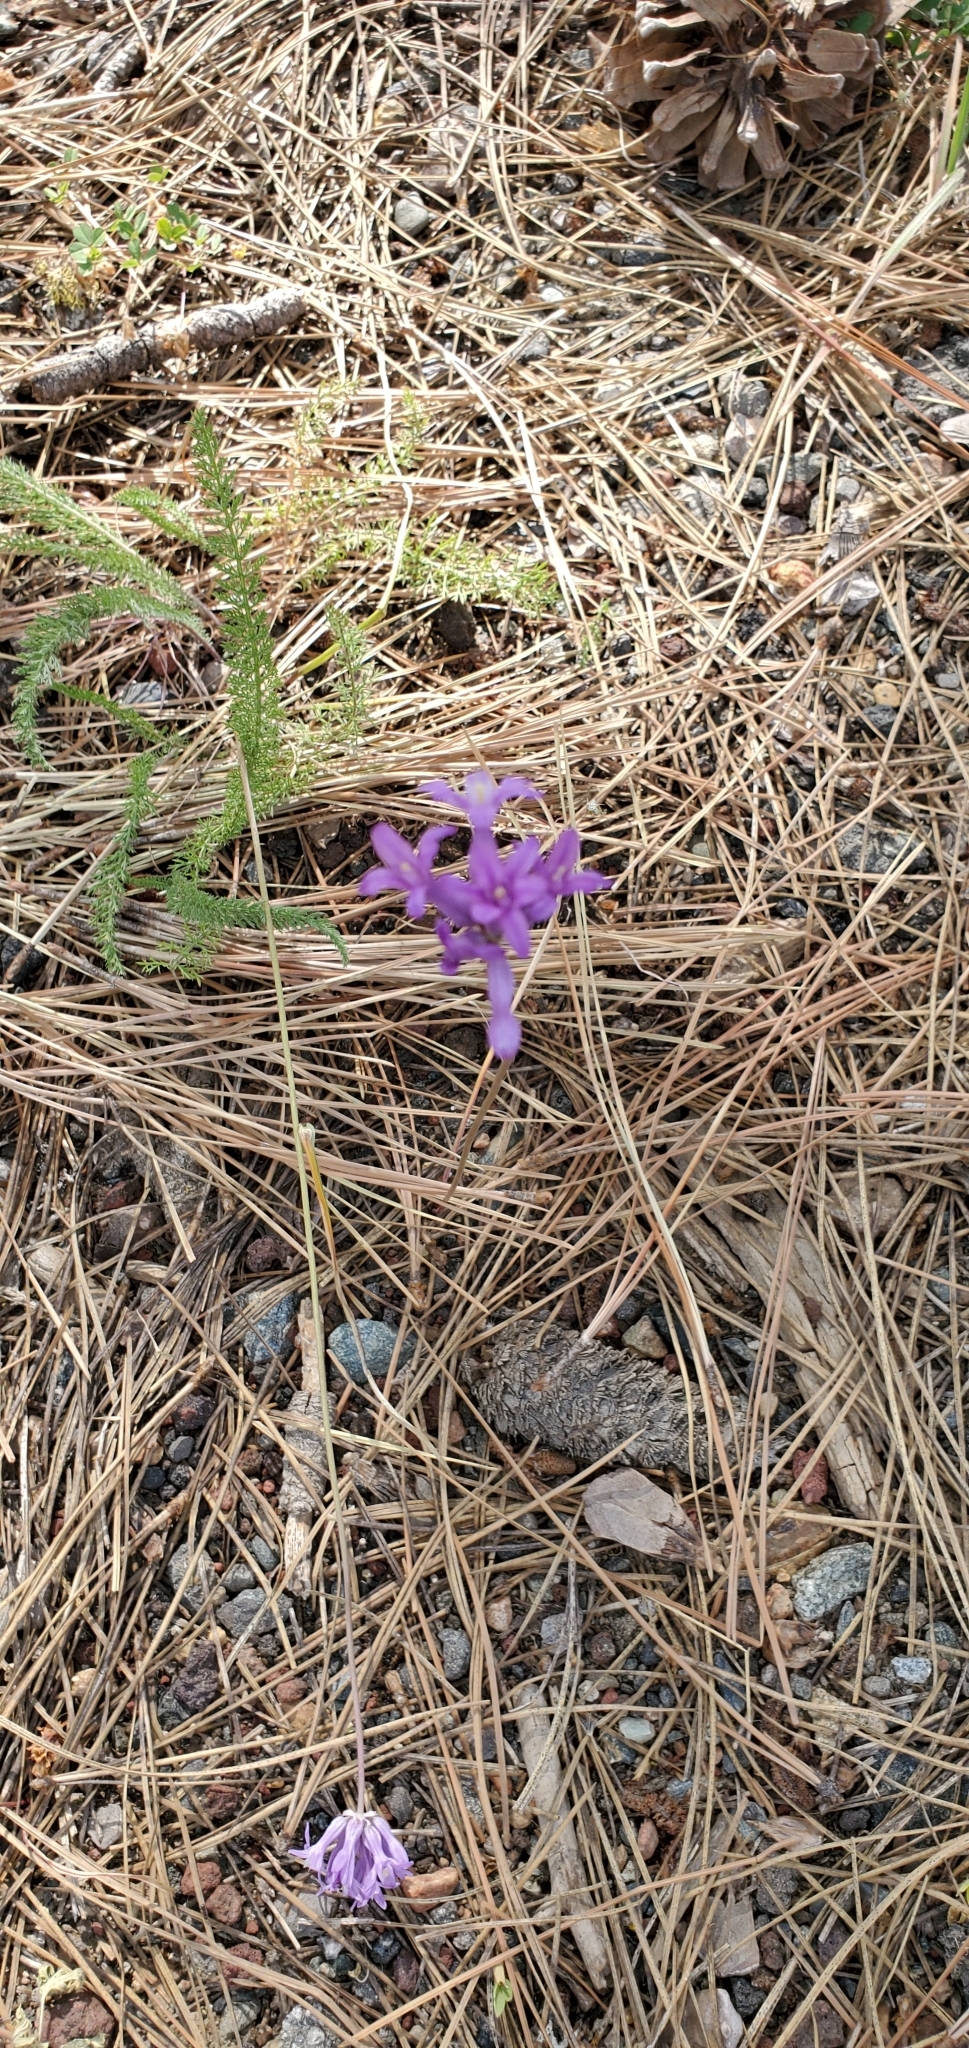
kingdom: Plantae
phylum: Tracheophyta
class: Liliopsida
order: Asparagales
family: Asparagaceae
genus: Dichelostemma
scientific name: Dichelostemma multiflorum
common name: Round-tooth ookow
